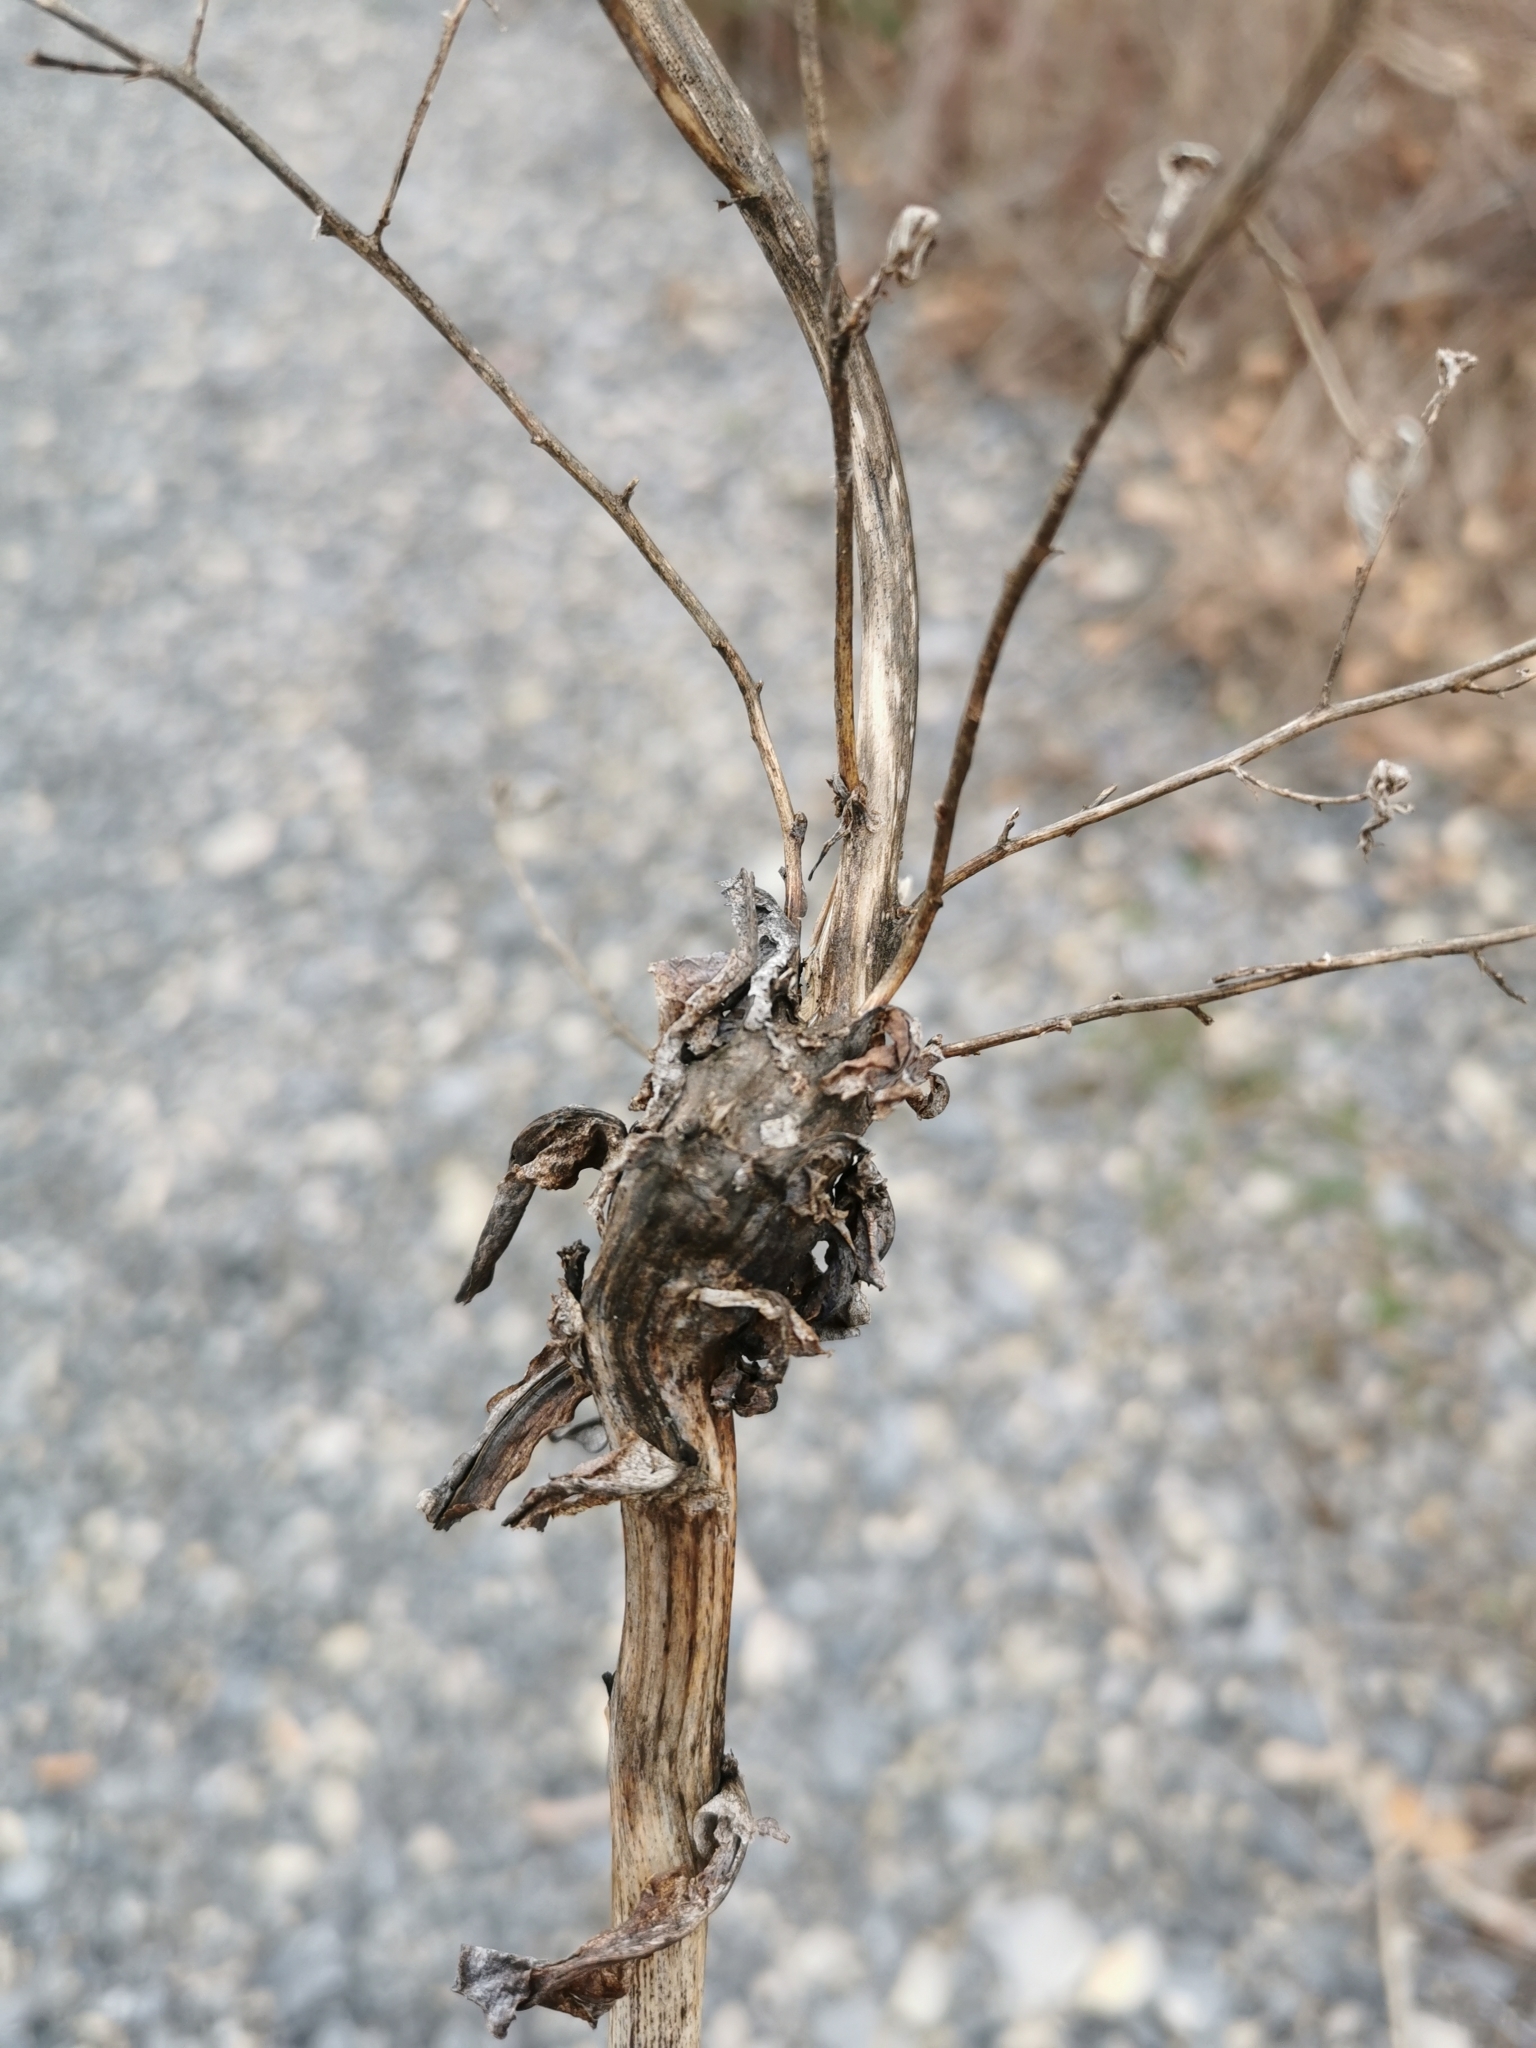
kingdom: Animalia
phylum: Arthropoda
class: Insecta
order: Hymenoptera
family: Cynipidae
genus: Aulacidea
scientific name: Aulacidea
